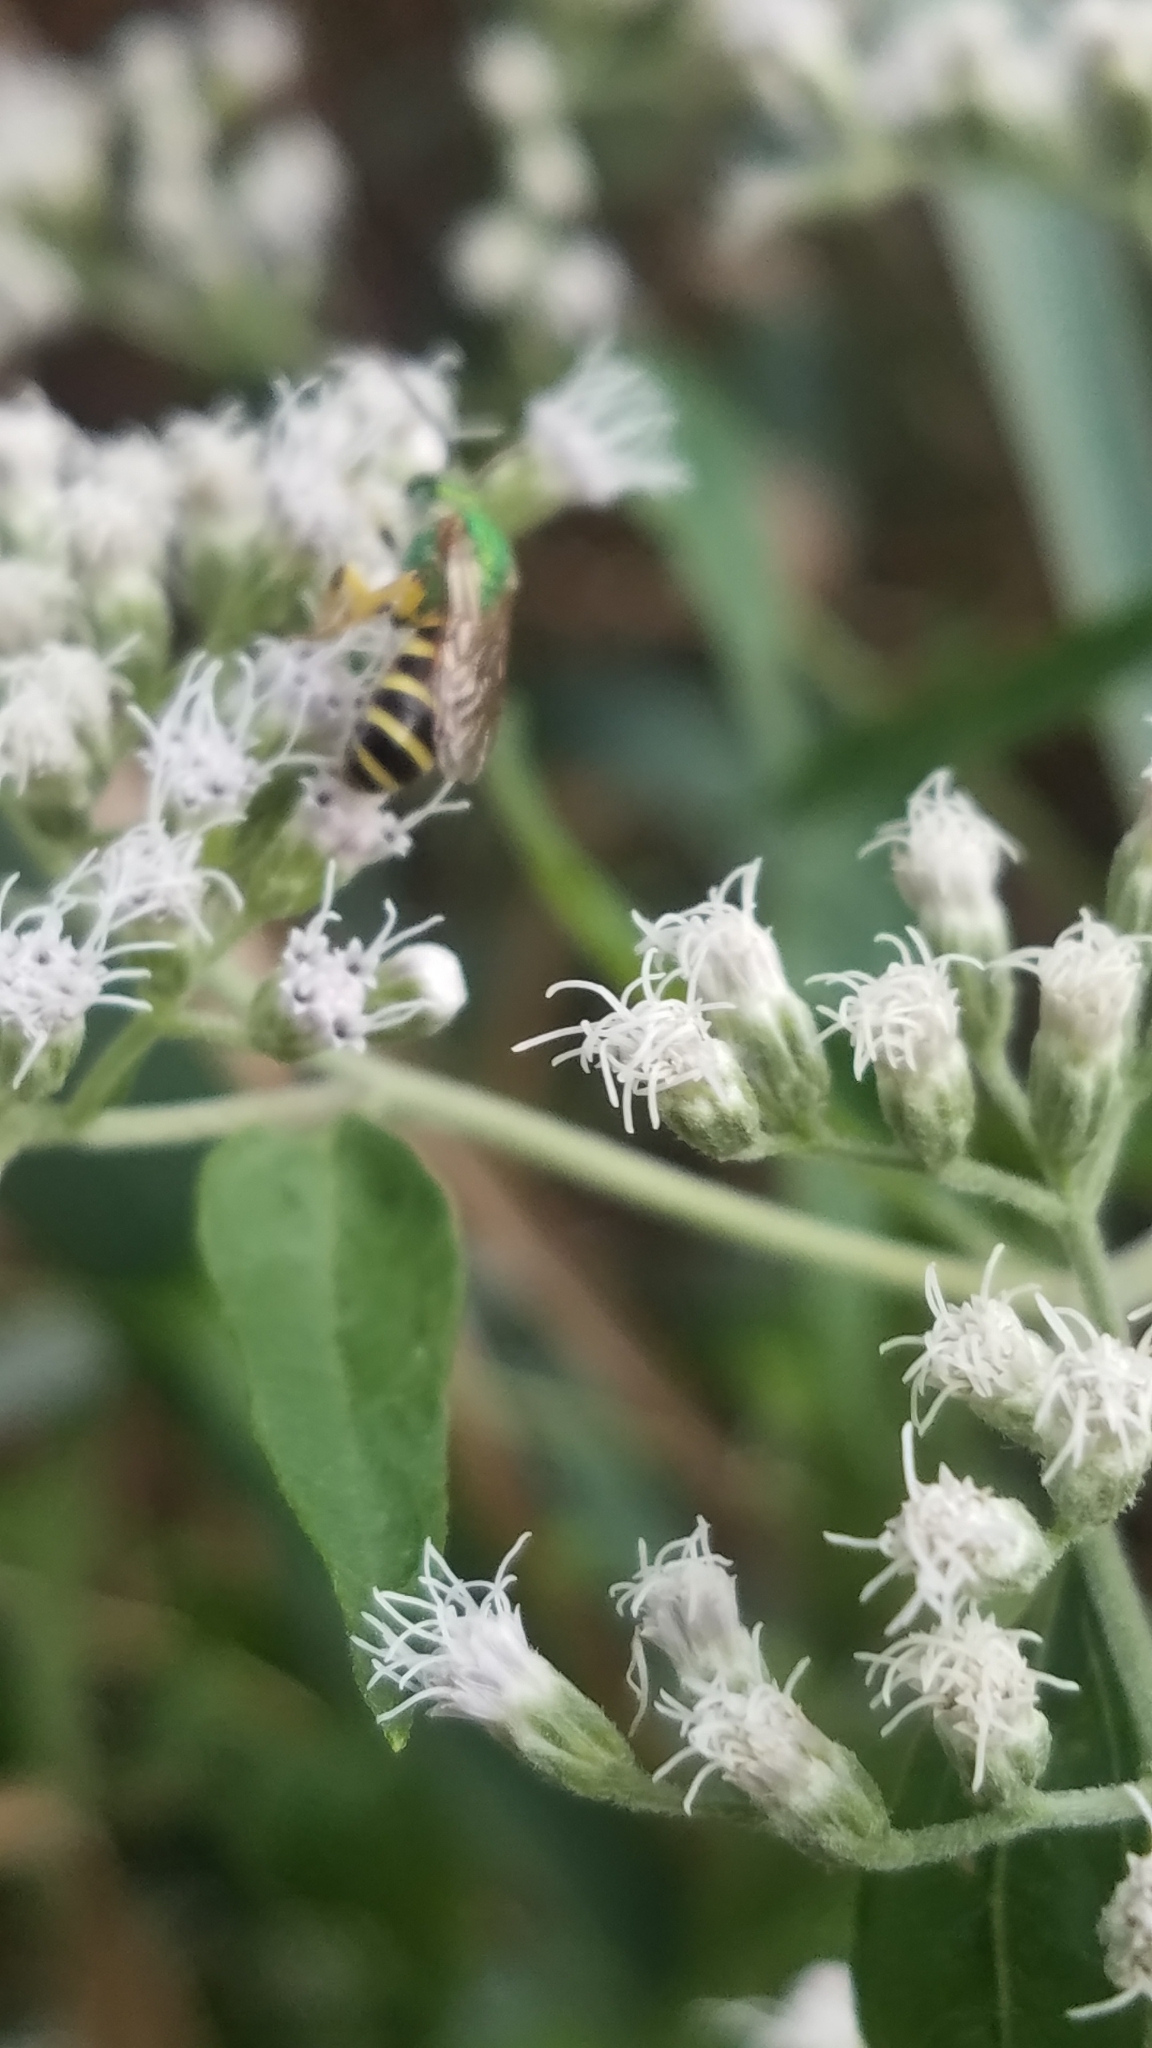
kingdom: Animalia
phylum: Arthropoda
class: Insecta
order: Hymenoptera
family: Halictidae
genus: Agapostemon
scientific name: Agapostemon virescens
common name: Bicolored striped sweat bee
